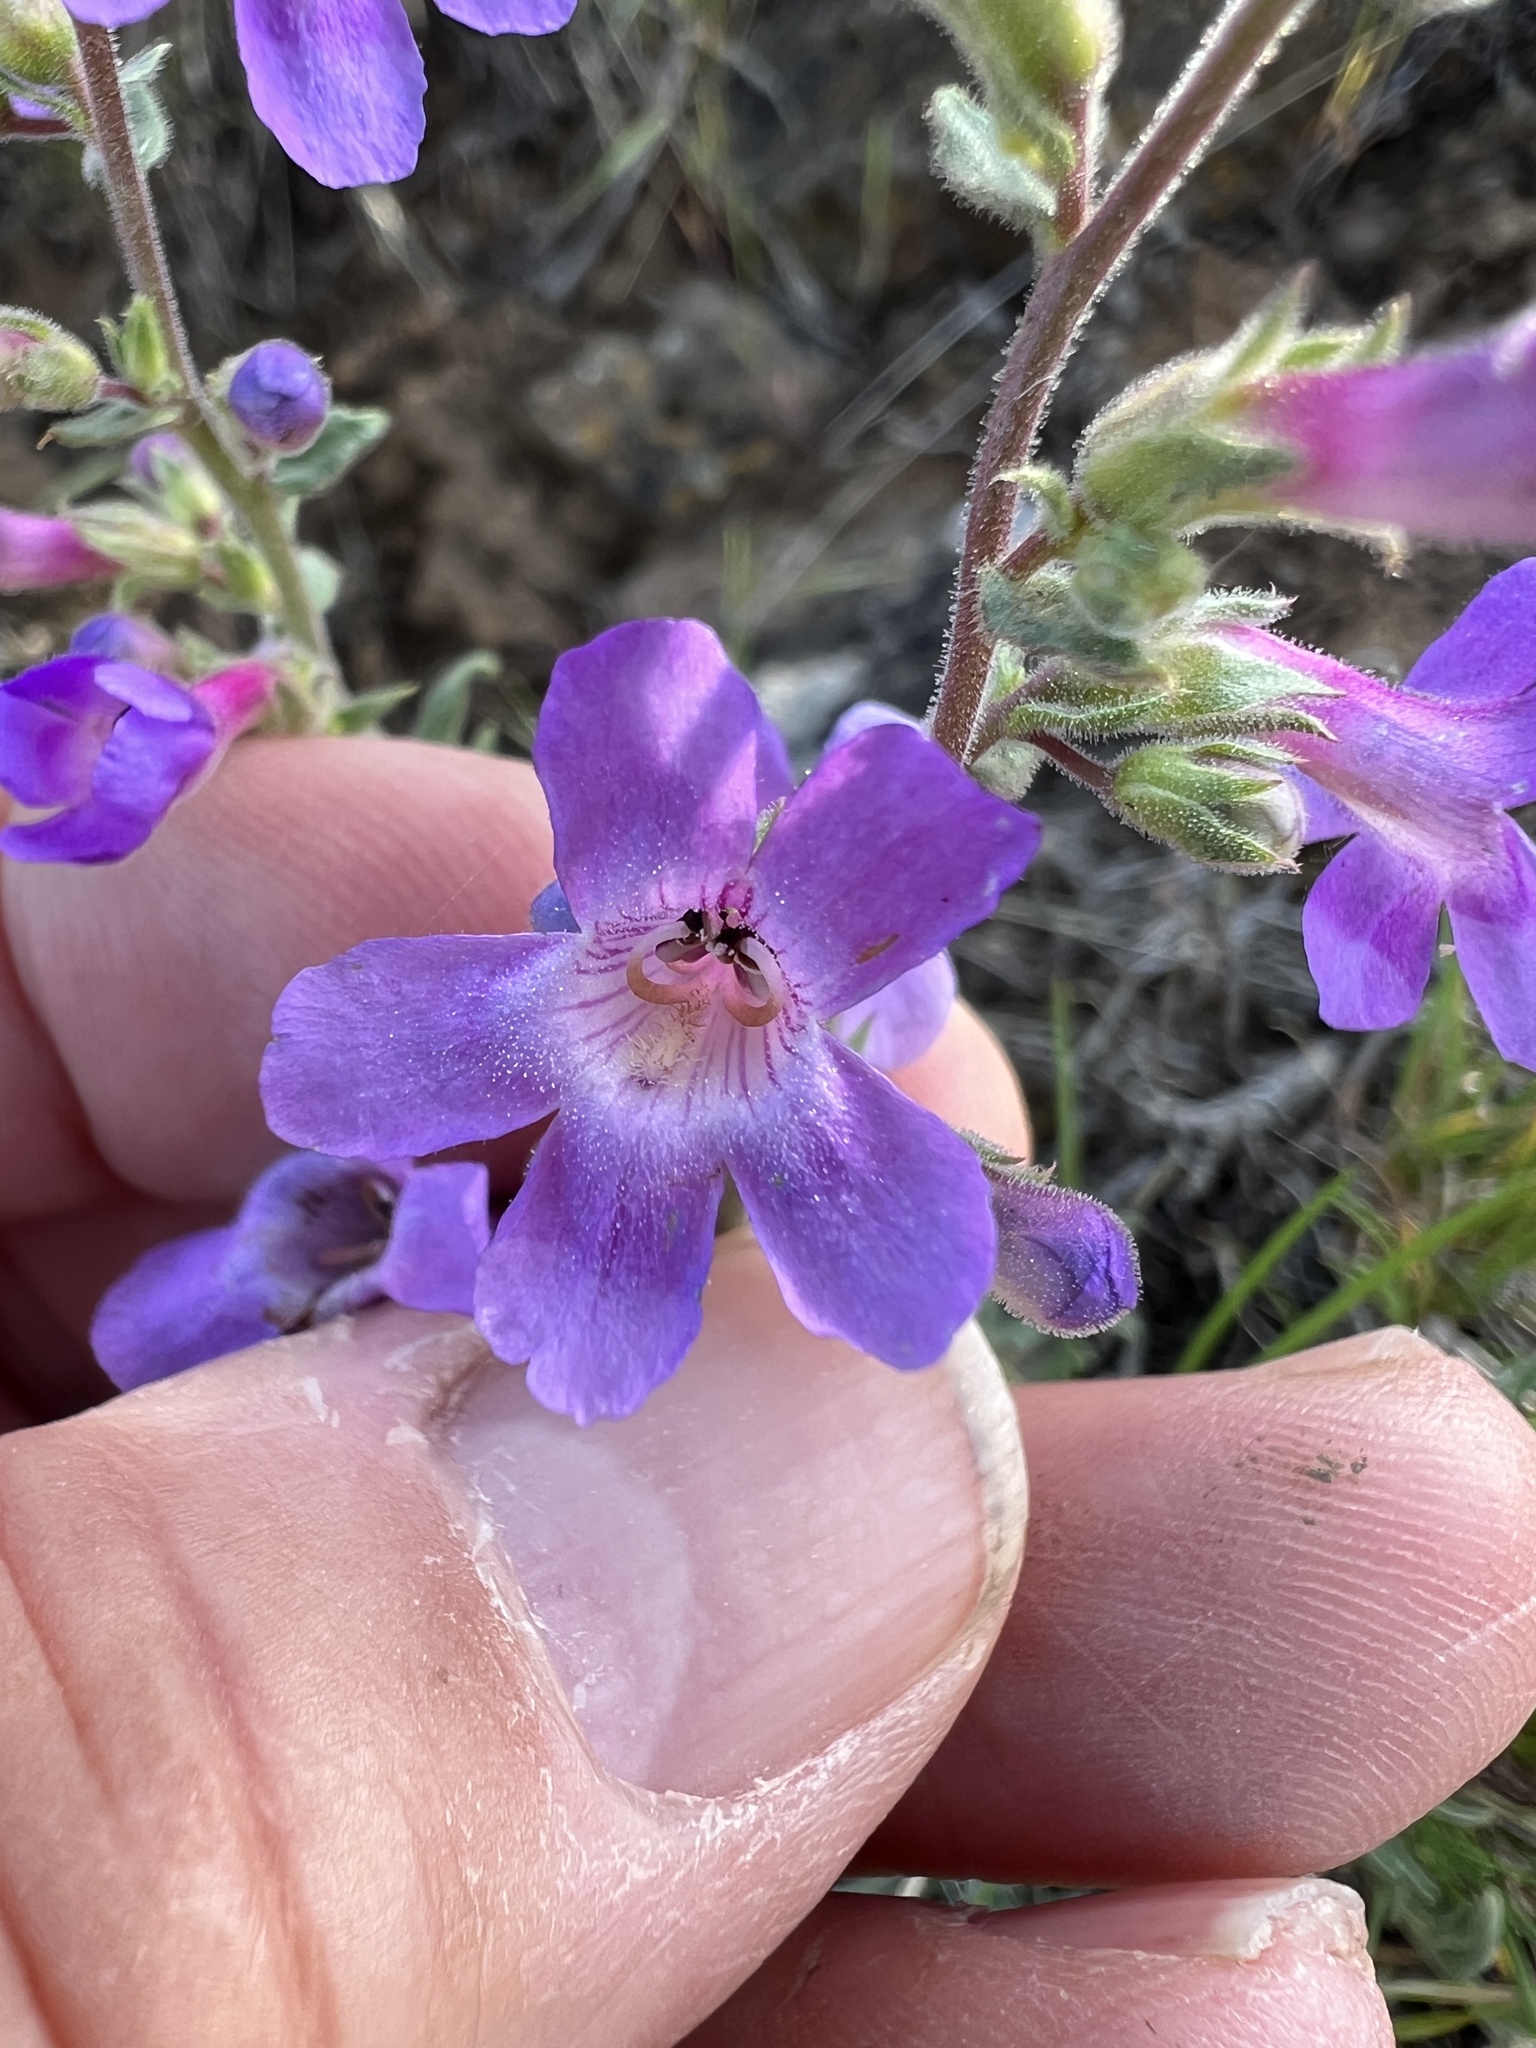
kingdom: Plantae
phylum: Tracheophyta
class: Magnoliopsida
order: Lamiales
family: Plantaginaceae
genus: Penstemon
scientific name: Penstemon gairdneri
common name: Gairdner's penstemon
